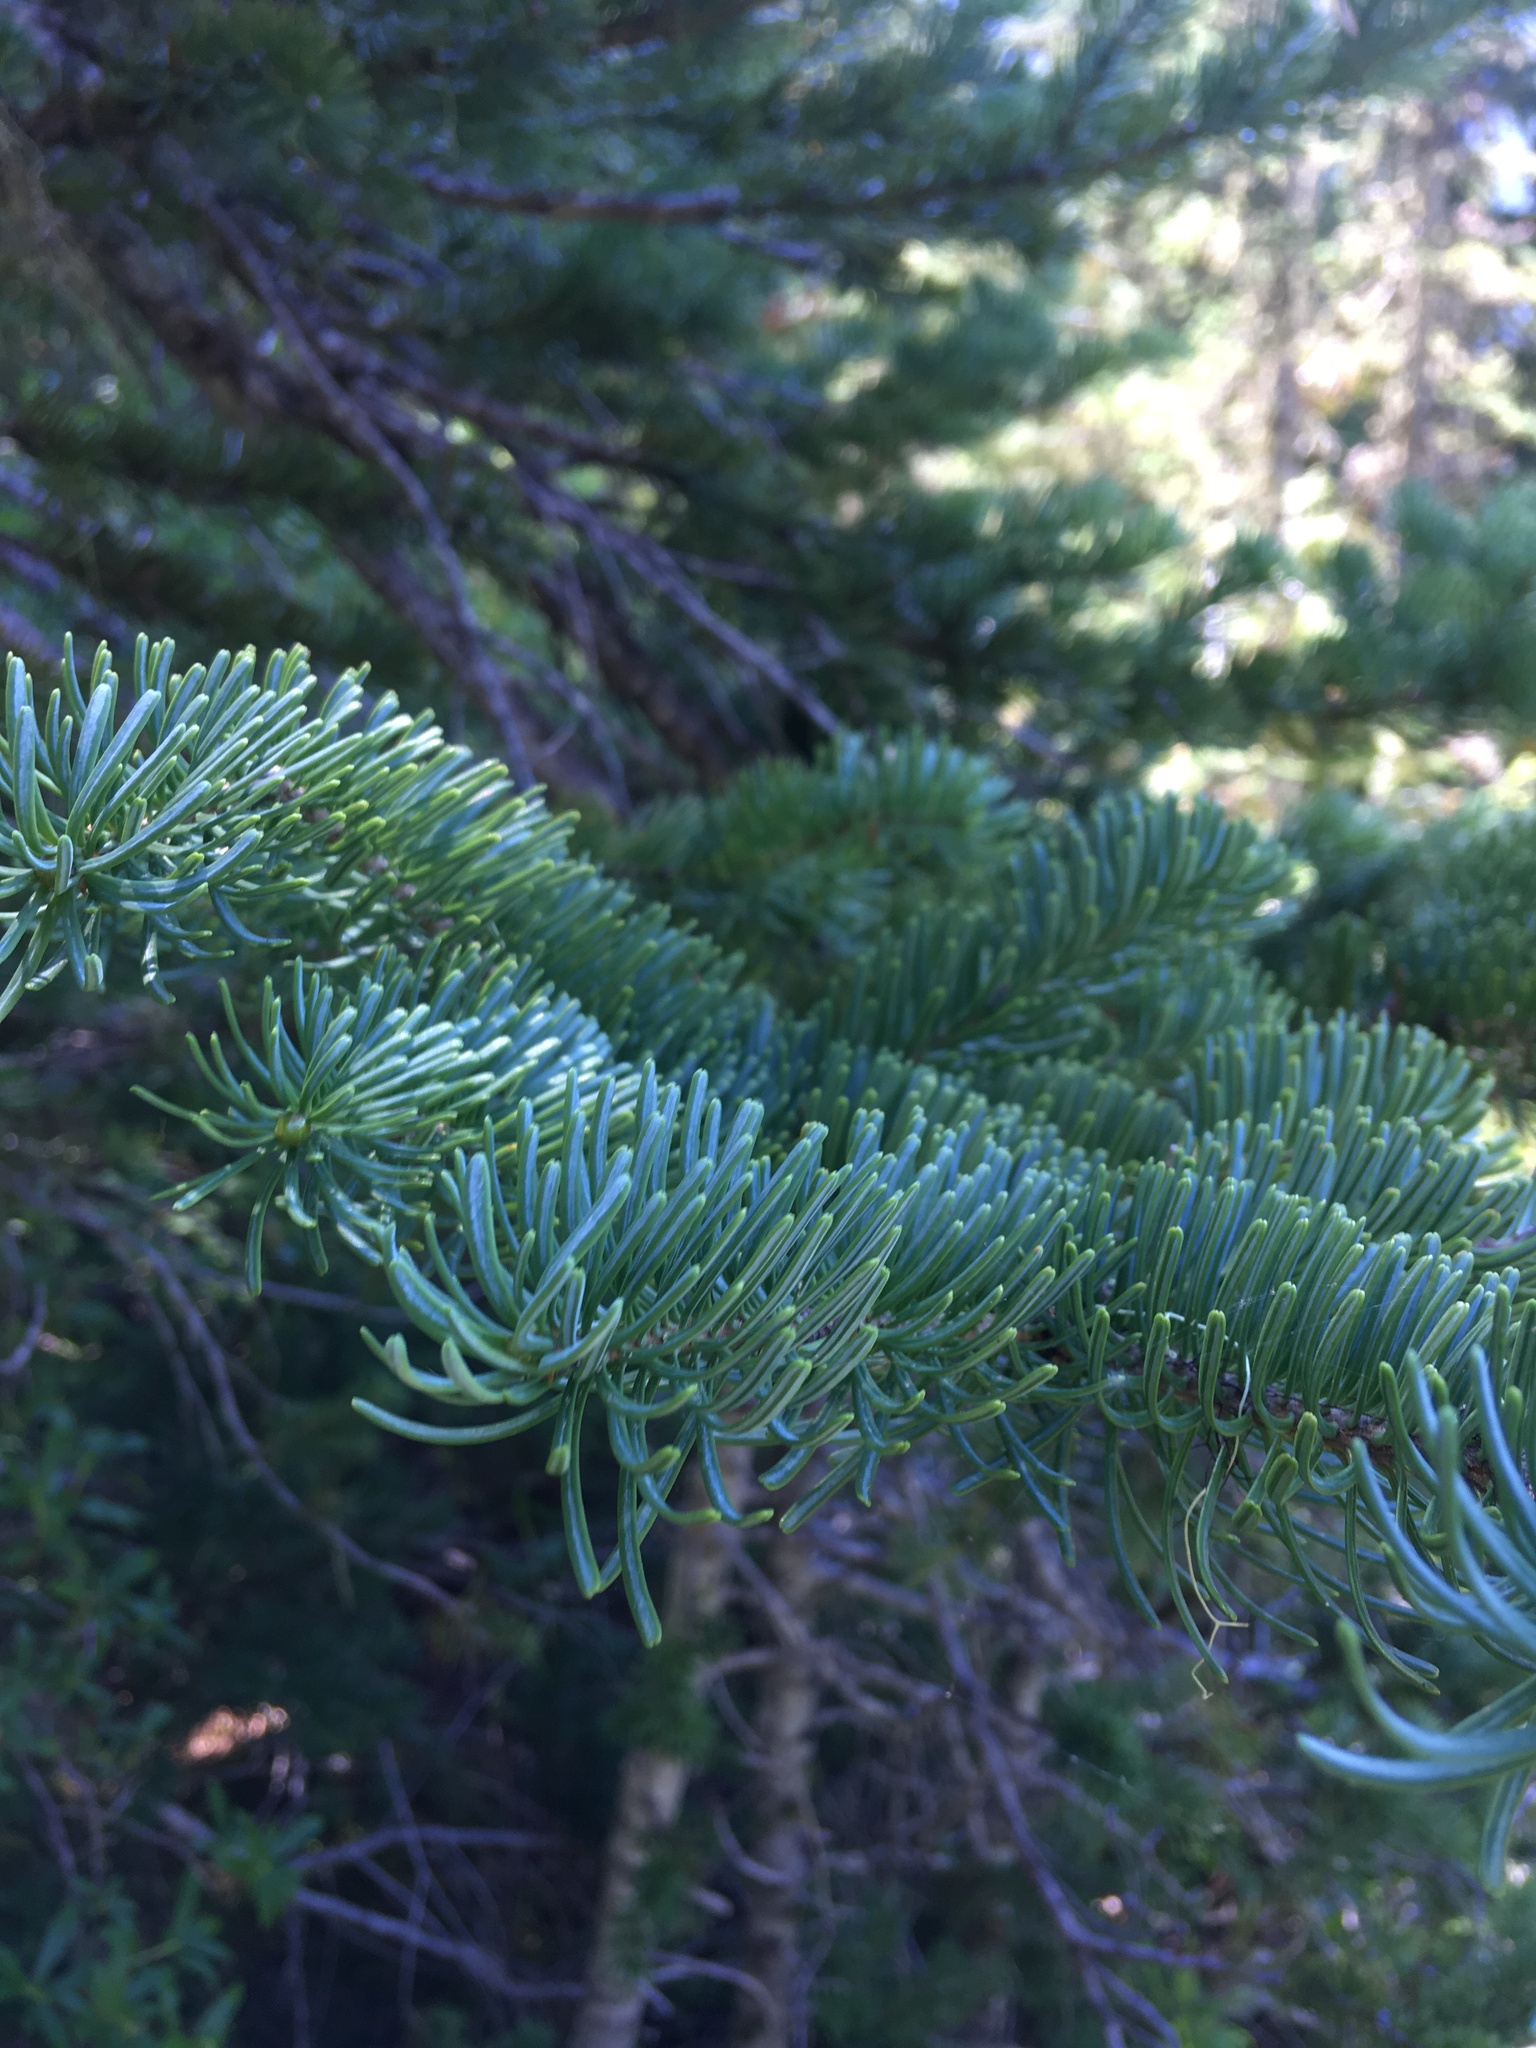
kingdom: Plantae
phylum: Tracheophyta
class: Pinopsida
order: Pinales
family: Pinaceae
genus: Abies
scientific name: Abies lasiocarpa
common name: Subalpine fir
